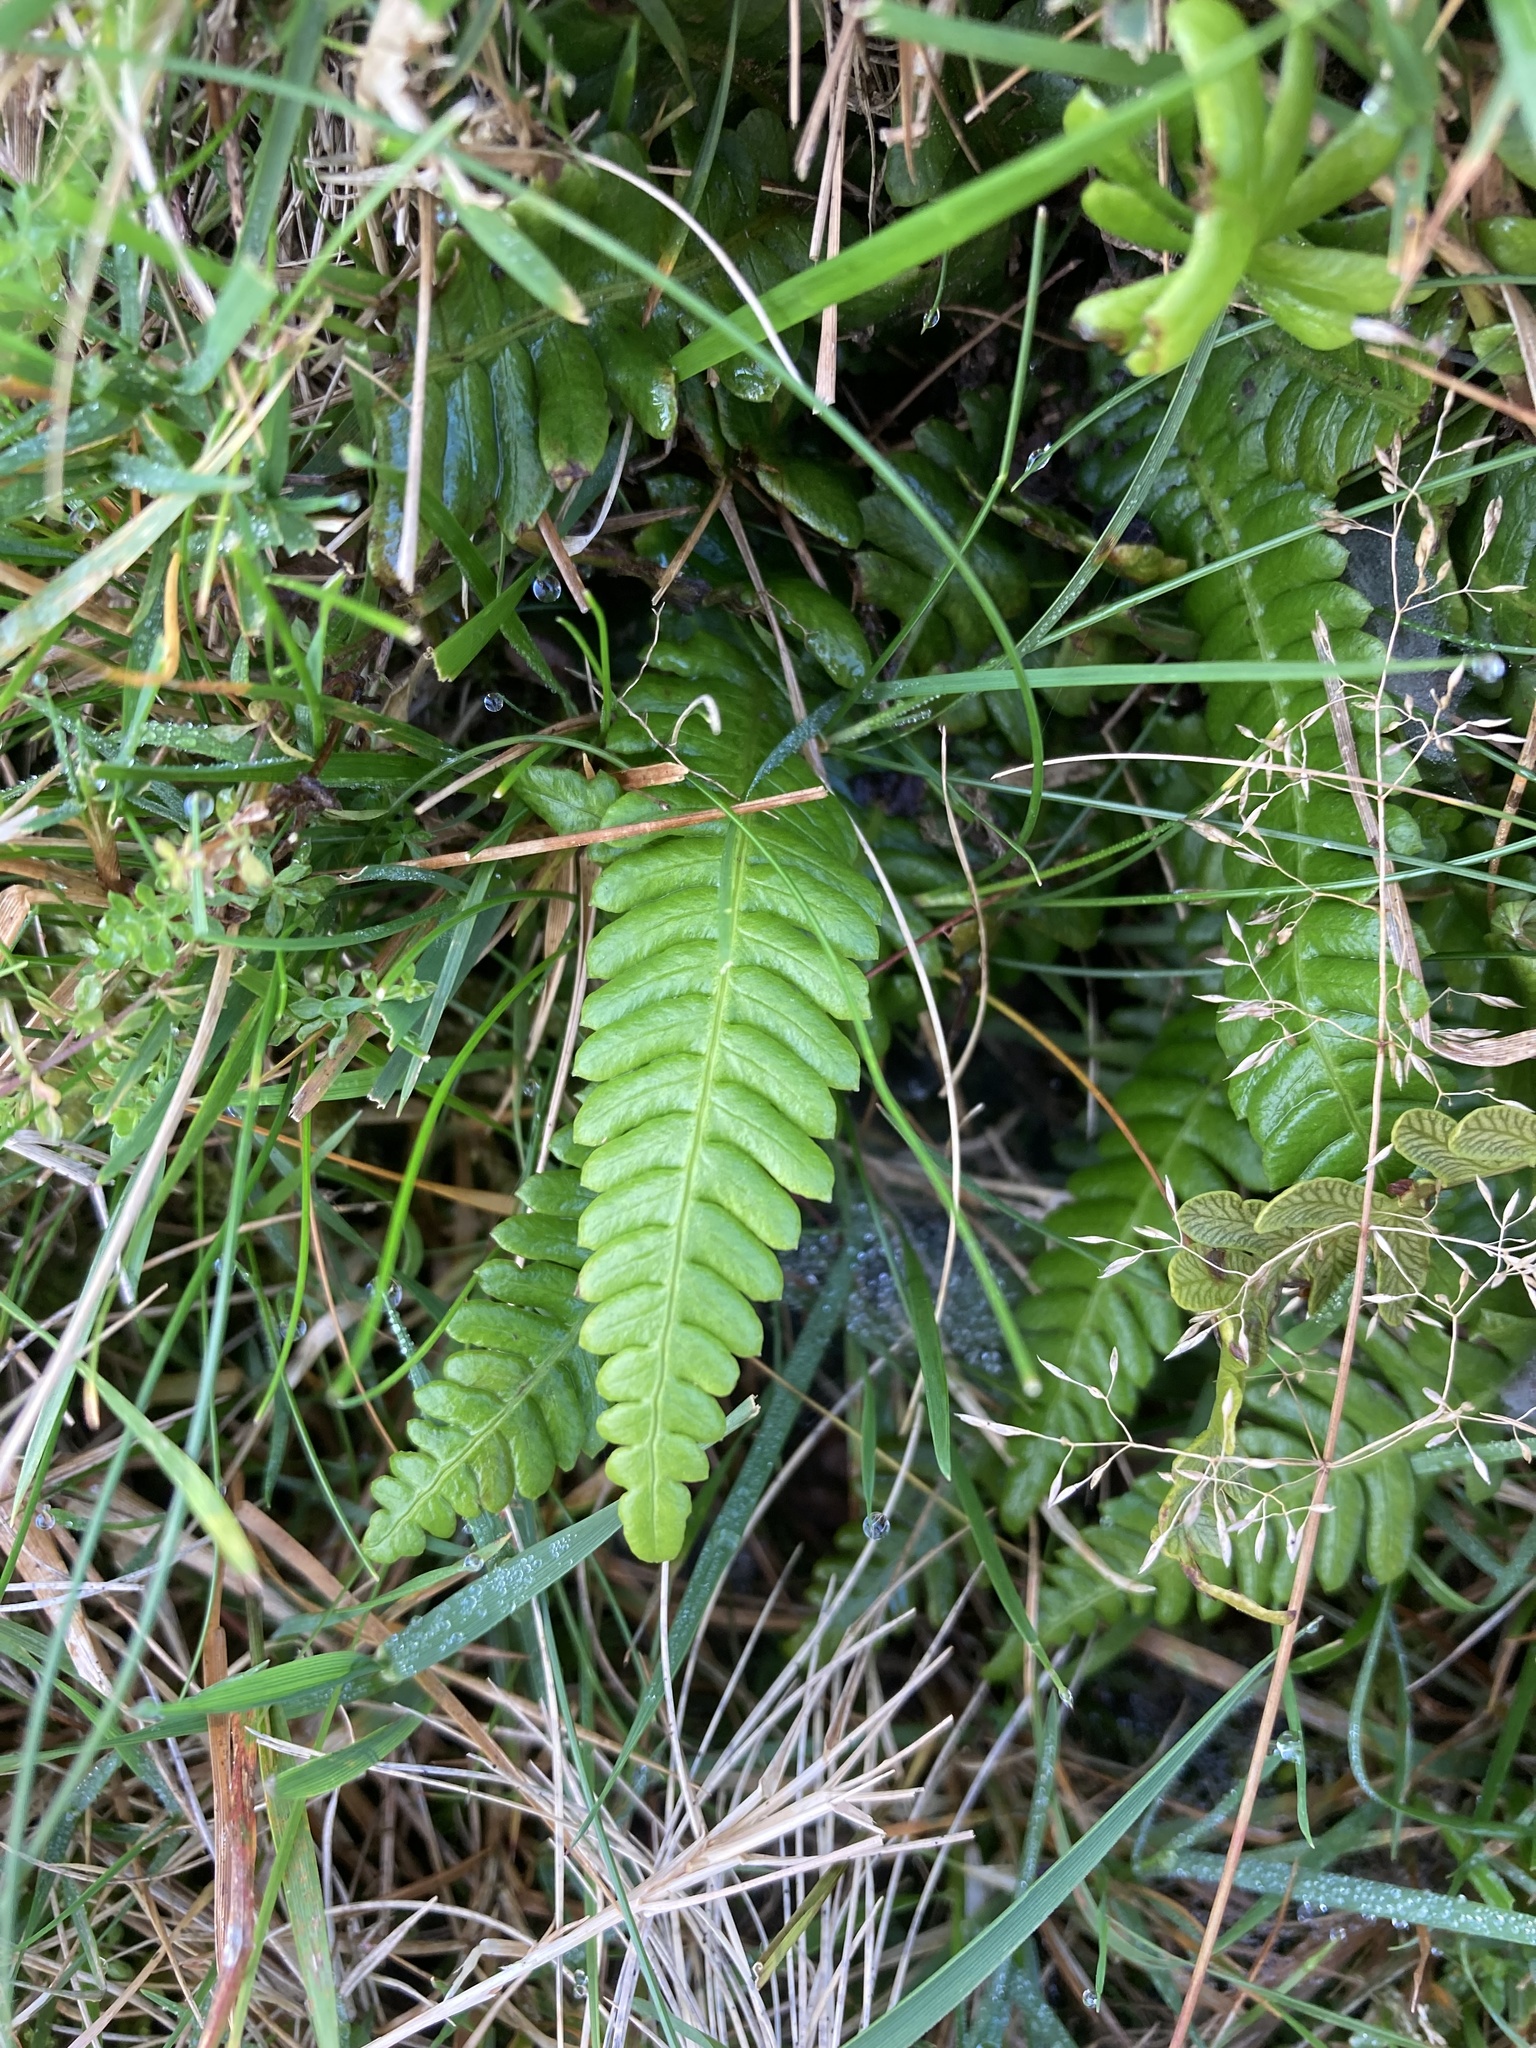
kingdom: Plantae
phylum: Tracheophyta
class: Polypodiopsida
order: Polypodiales
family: Blechnaceae
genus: Struthiopteris
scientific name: Struthiopteris spicant
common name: Deer fern
